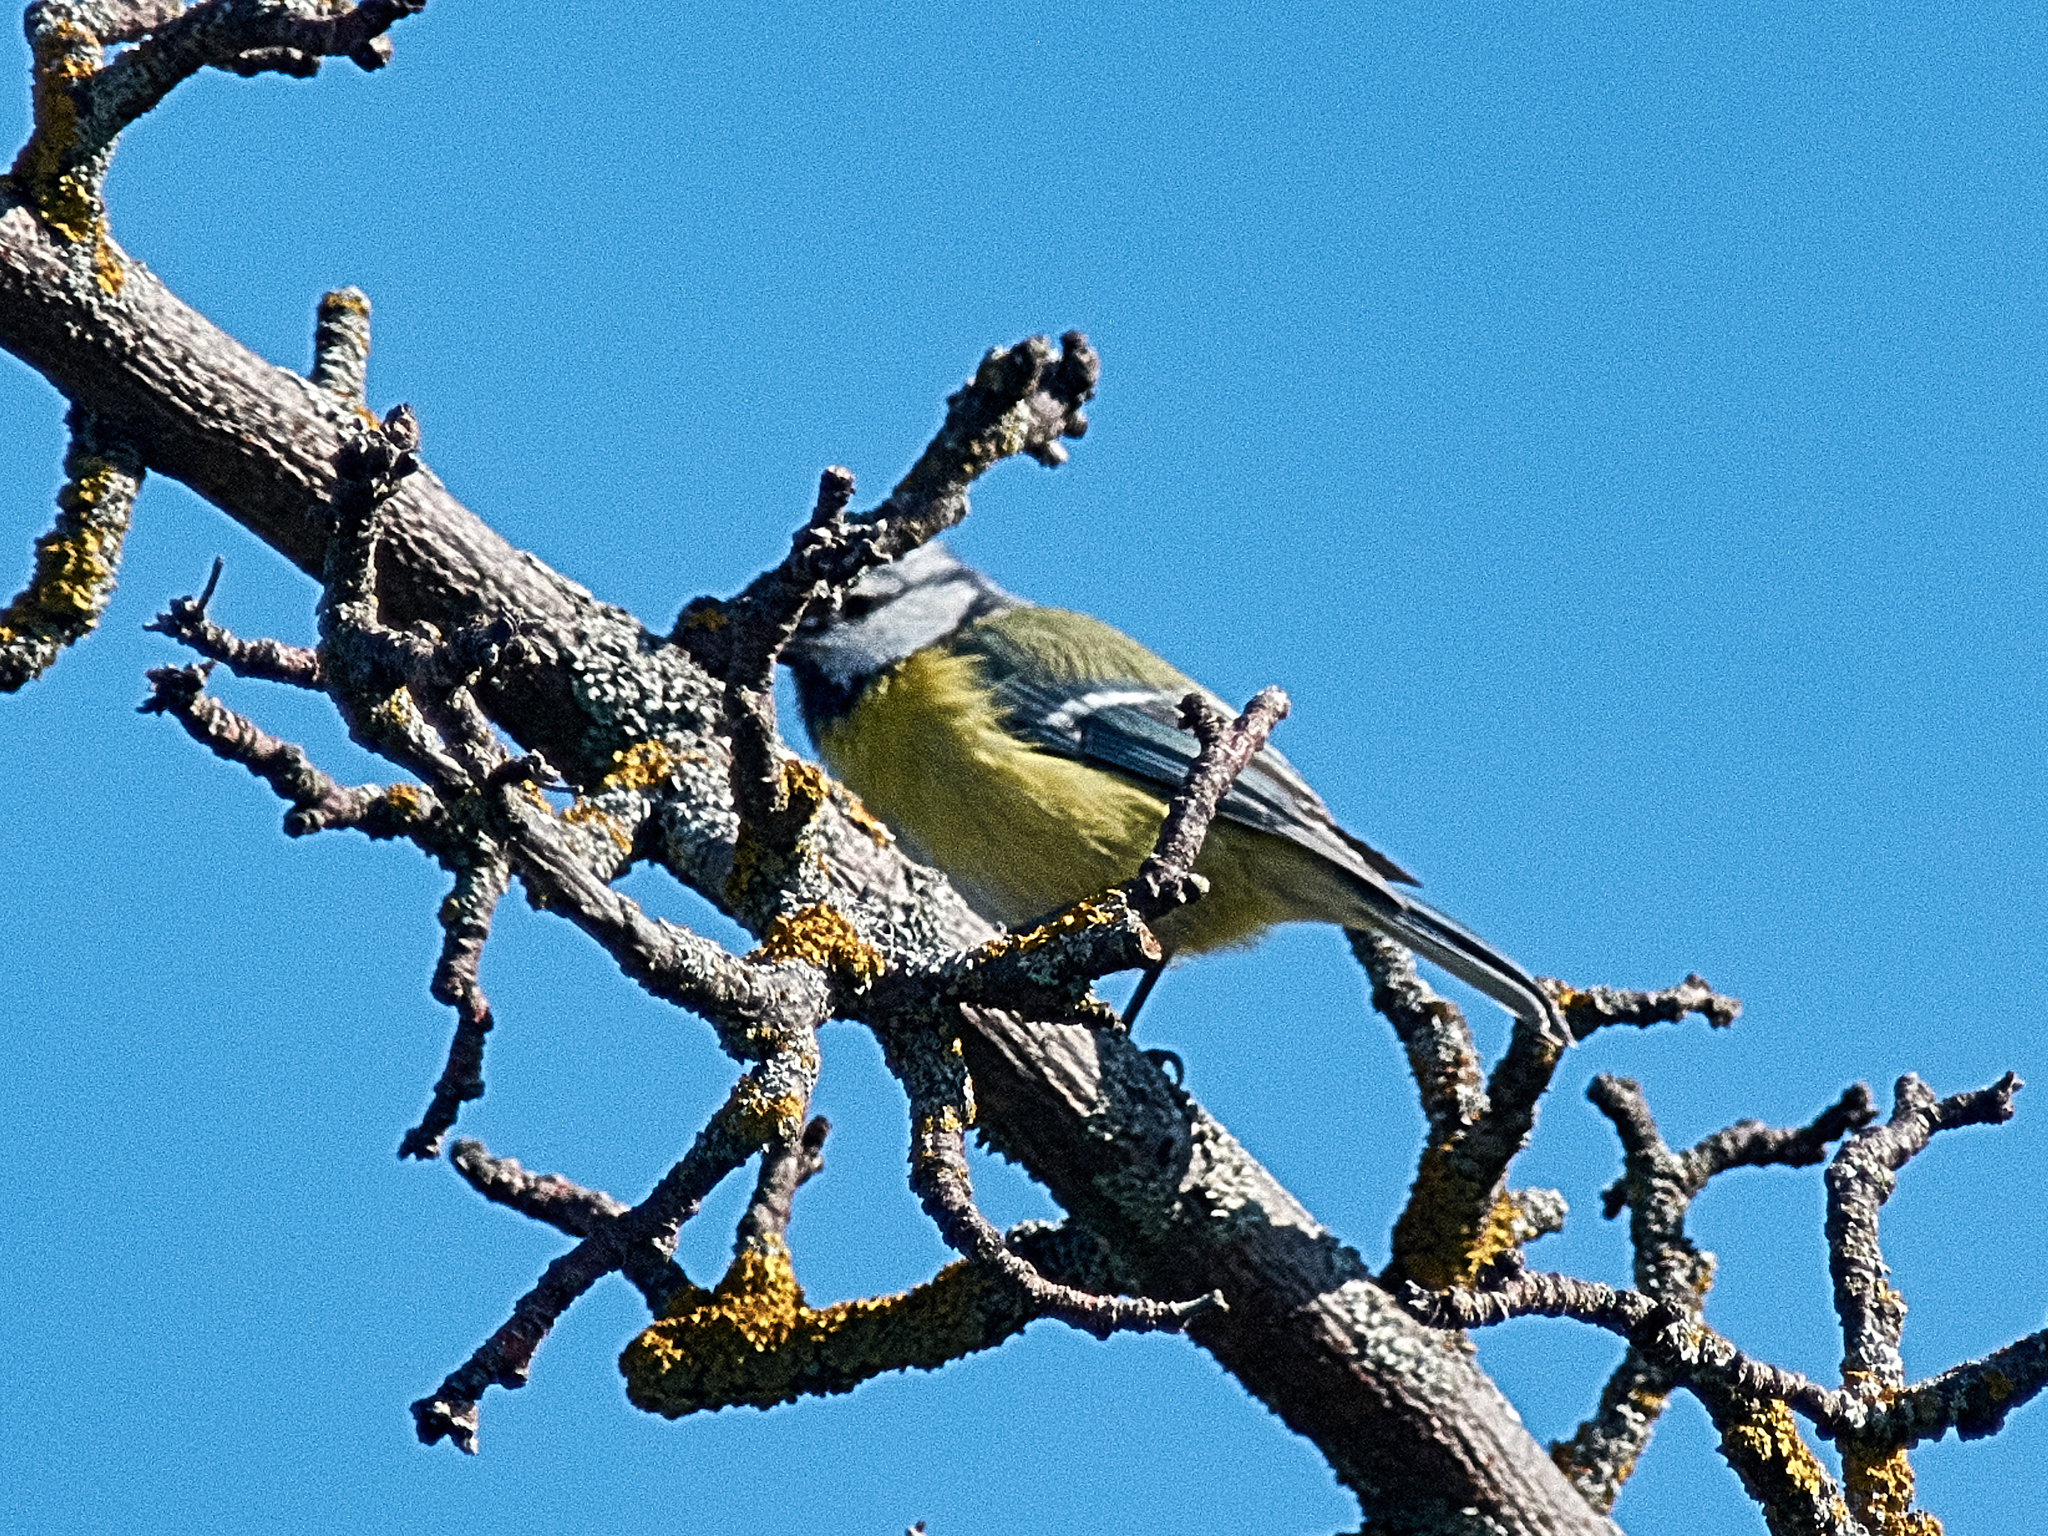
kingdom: Animalia
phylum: Chordata
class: Aves
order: Passeriformes
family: Paridae
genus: Cyanistes
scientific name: Cyanistes caeruleus
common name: Eurasian blue tit
